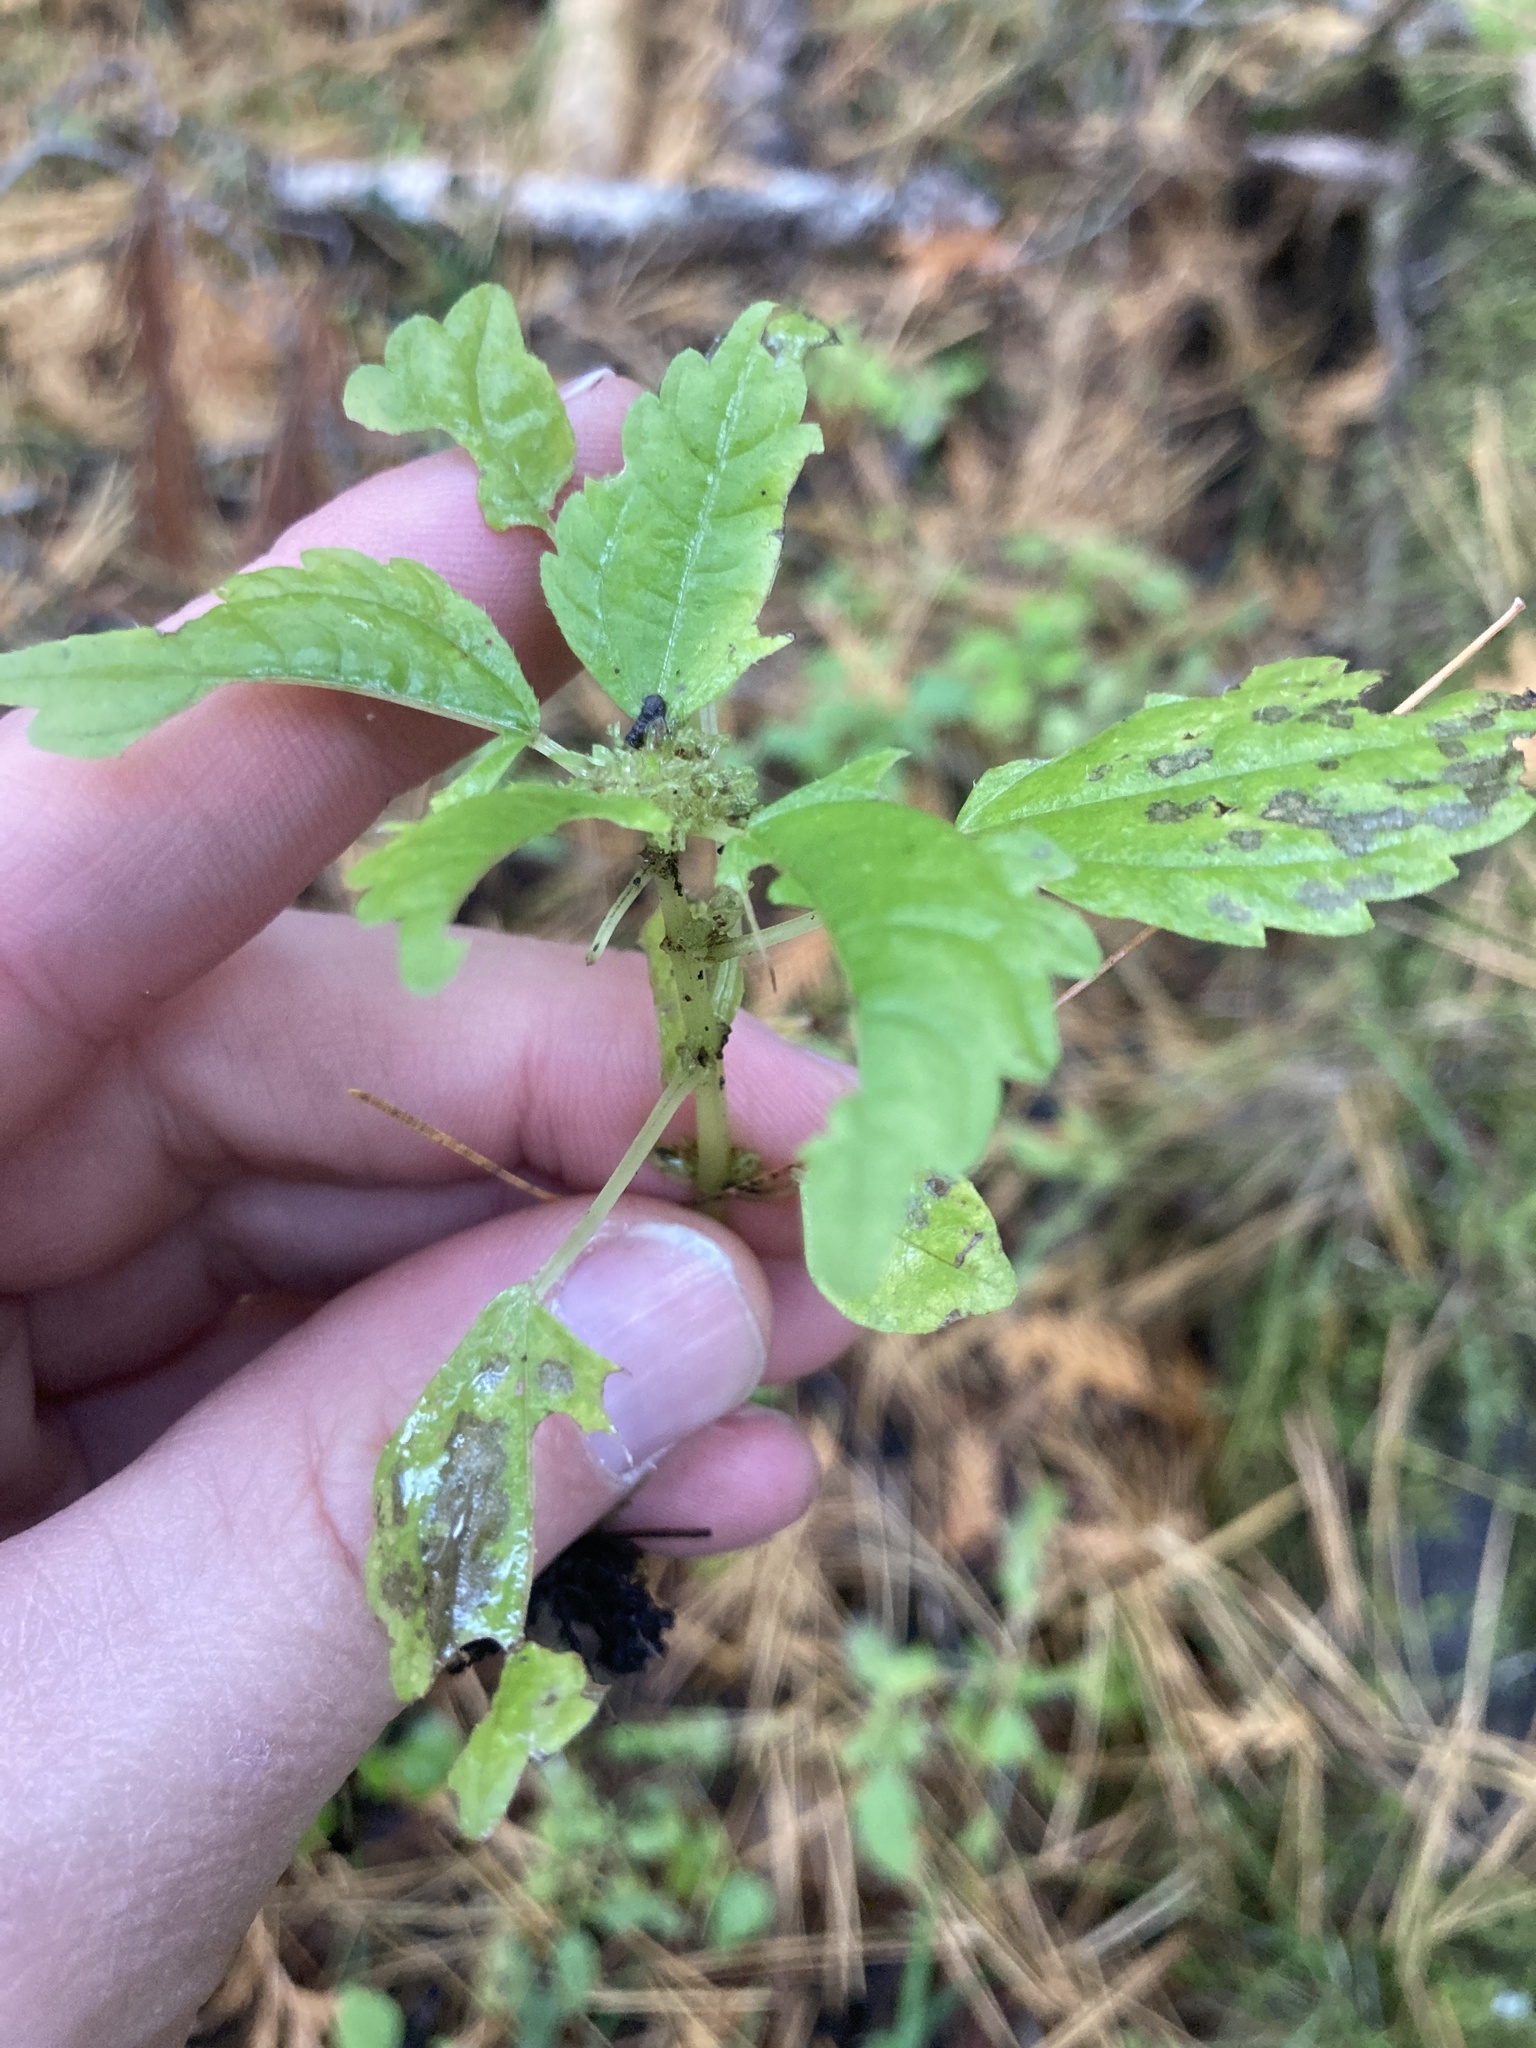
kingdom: Plantae
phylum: Tracheophyta
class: Magnoliopsida
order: Rosales
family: Urticaceae
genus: Pilea
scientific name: Pilea pumila
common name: Clearweed
